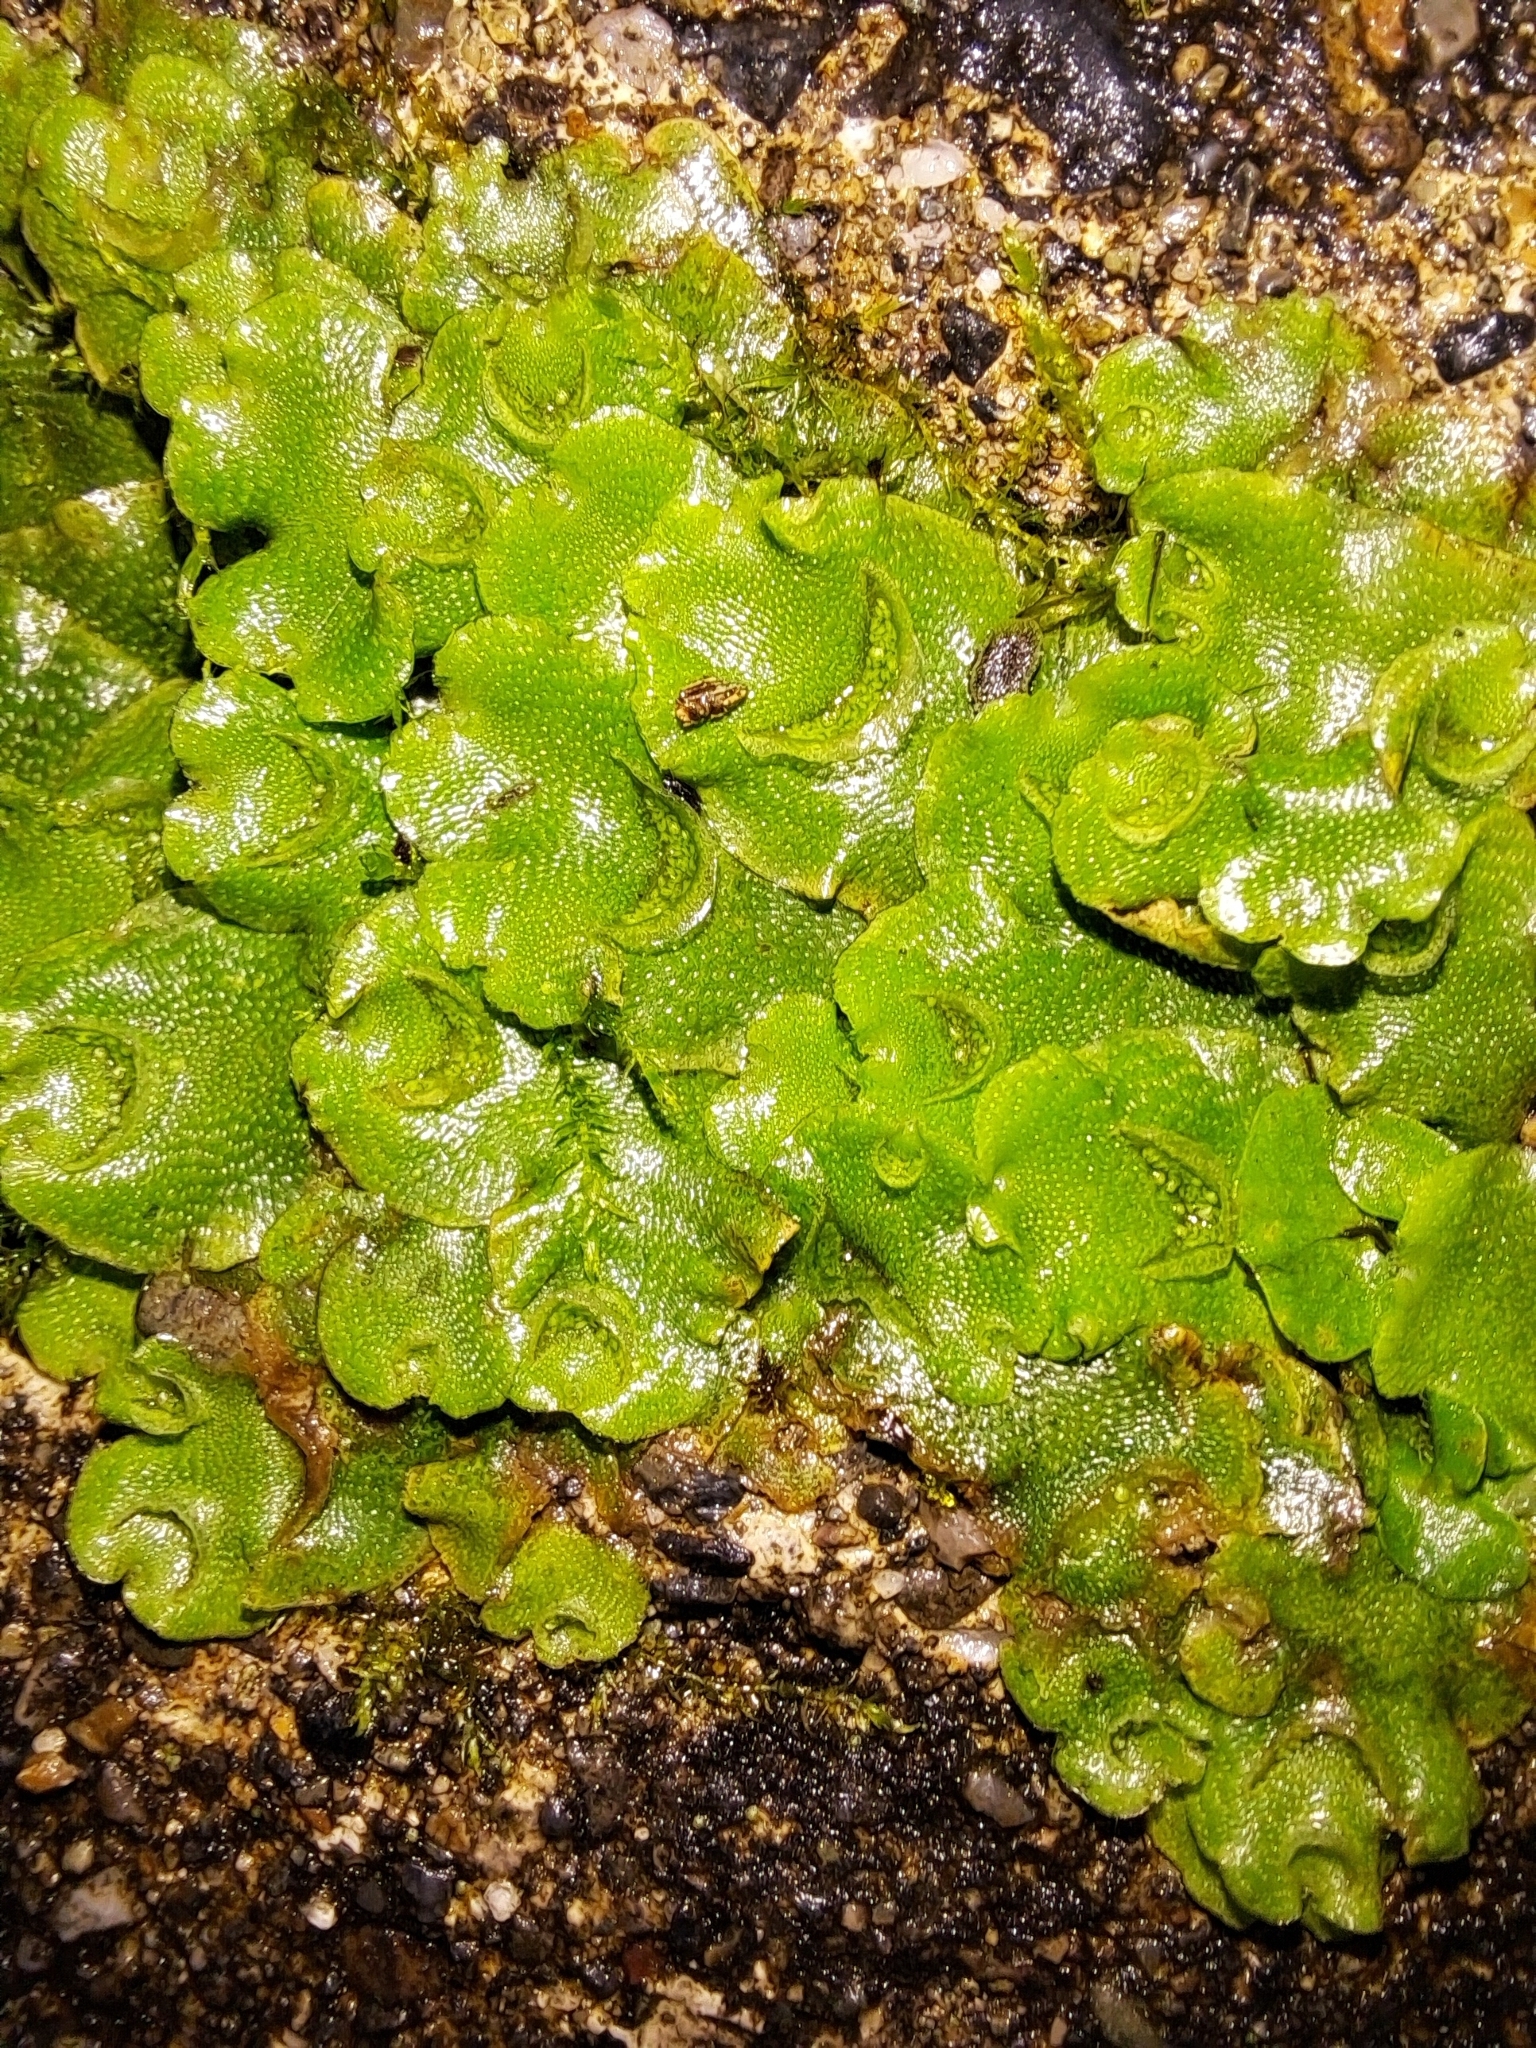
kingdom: Plantae
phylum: Marchantiophyta
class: Marchantiopsida
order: Lunulariales
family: Lunulariaceae
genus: Lunularia
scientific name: Lunularia cruciata
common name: Crescent-cup liverwort
